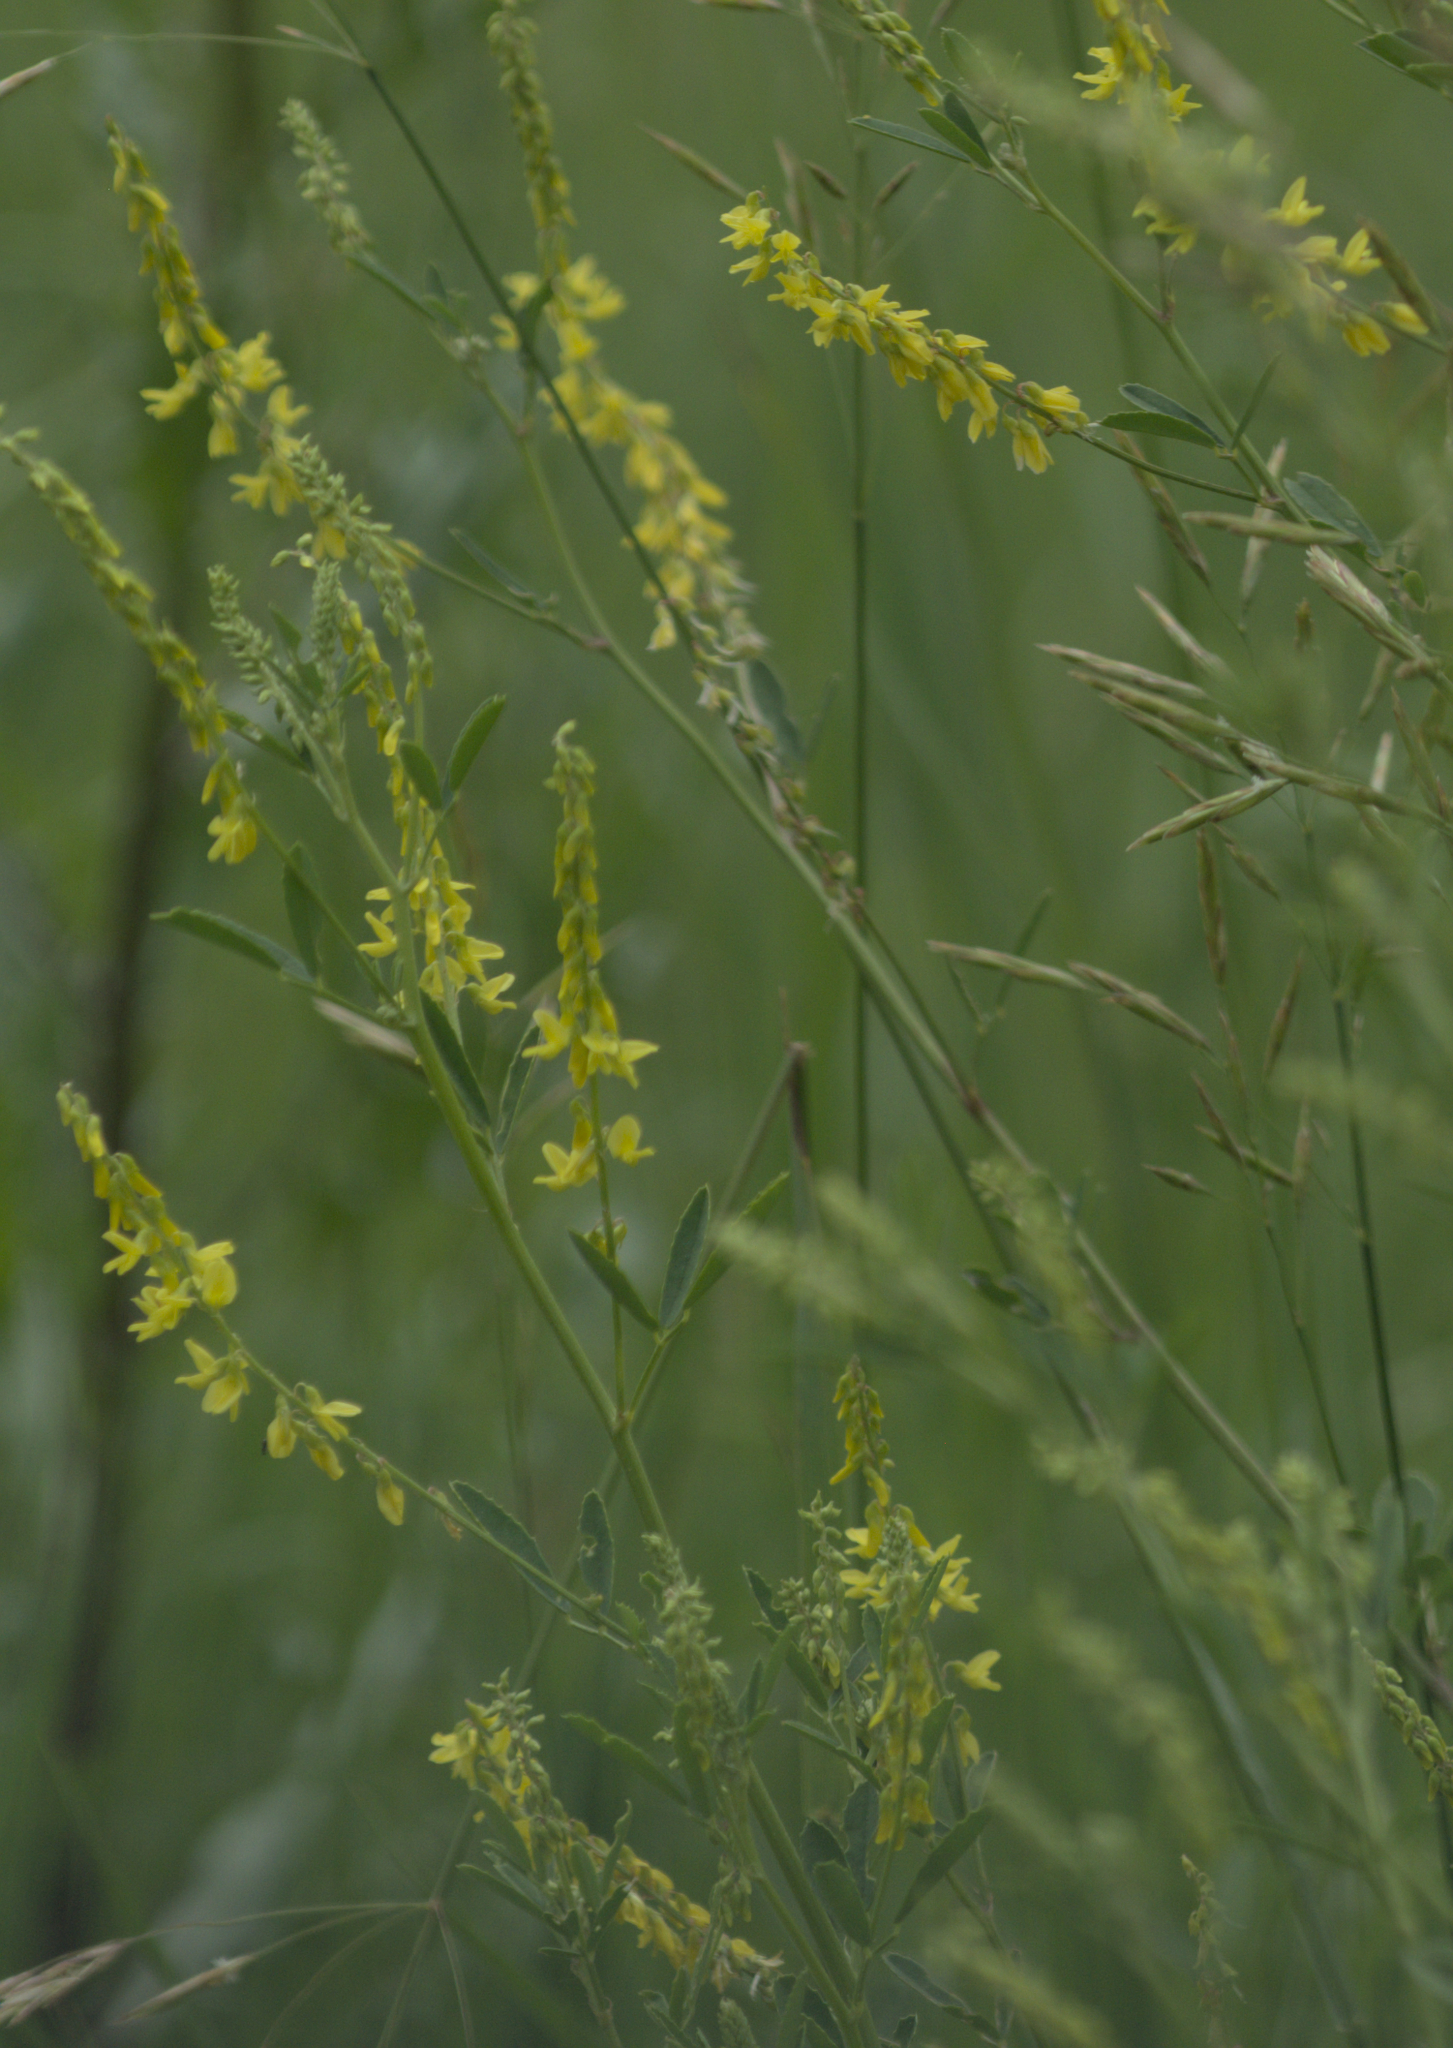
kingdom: Plantae
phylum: Tracheophyta
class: Magnoliopsida
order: Fabales
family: Fabaceae
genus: Melilotus
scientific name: Melilotus officinalis
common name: Sweetclover
